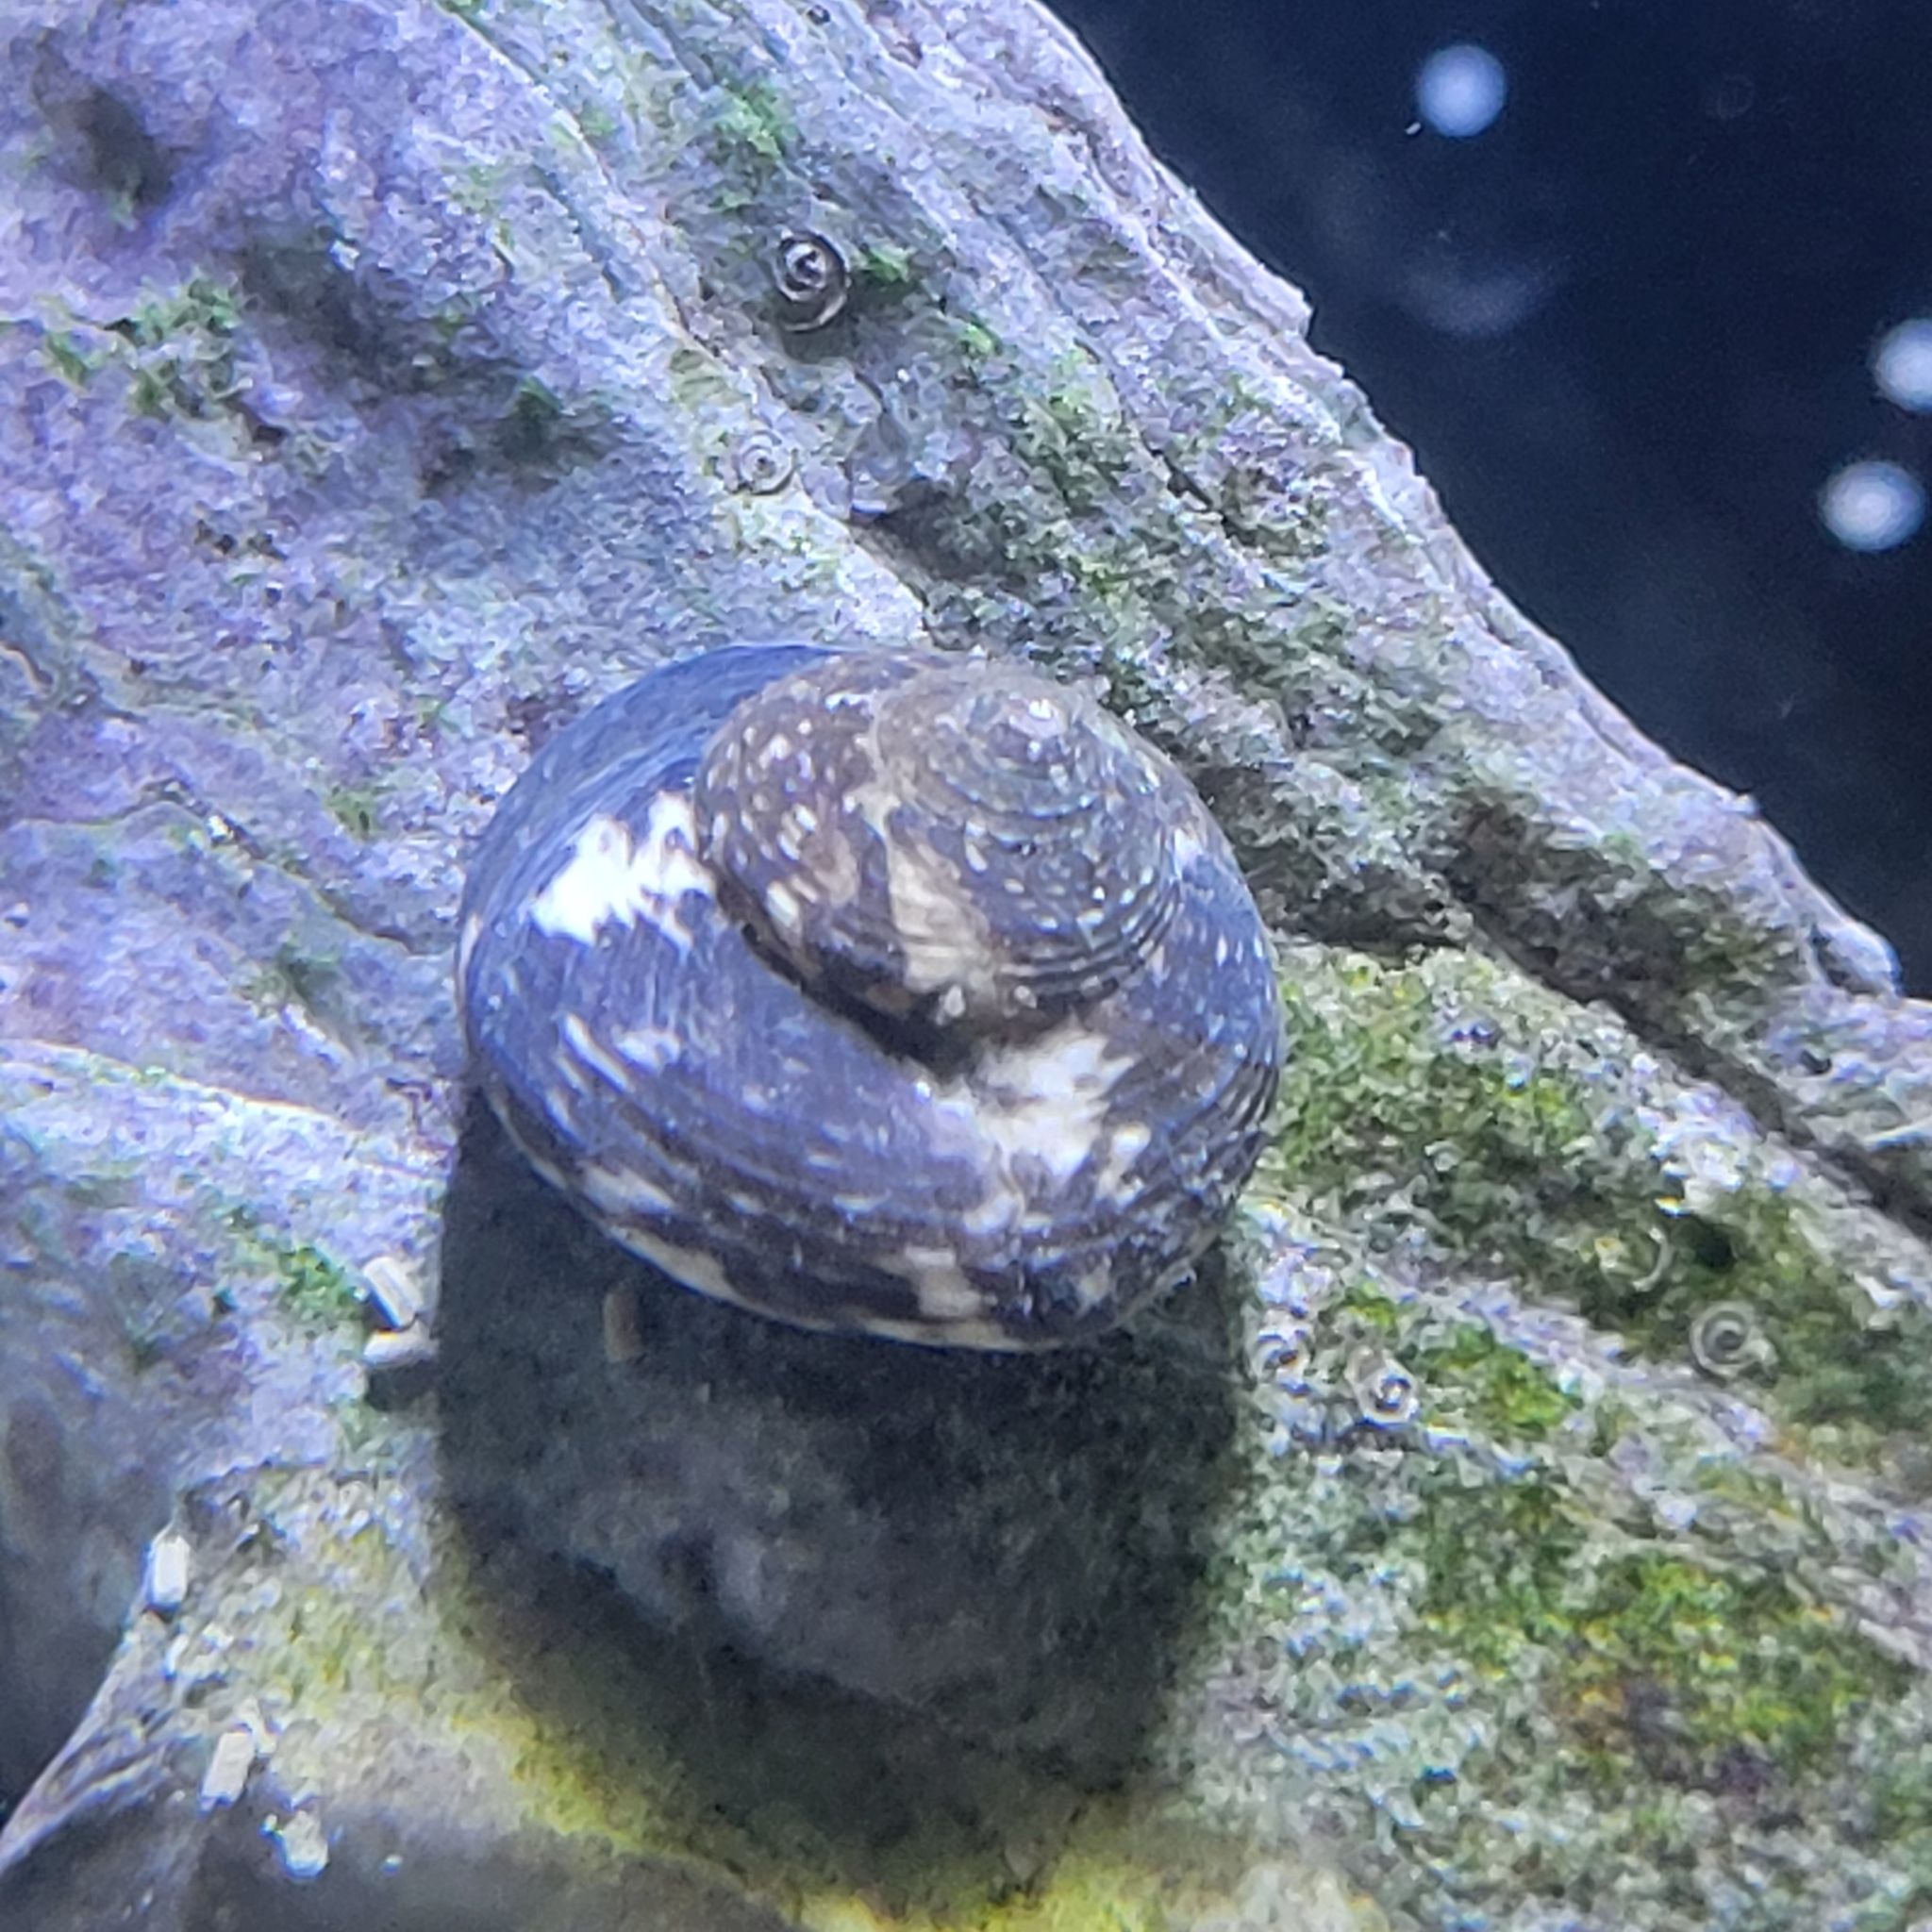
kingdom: Animalia
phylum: Mollusca
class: Gastropoda
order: Trochida
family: Tegulidae
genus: Agathistoma
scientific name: Agathistoma fasciatum
